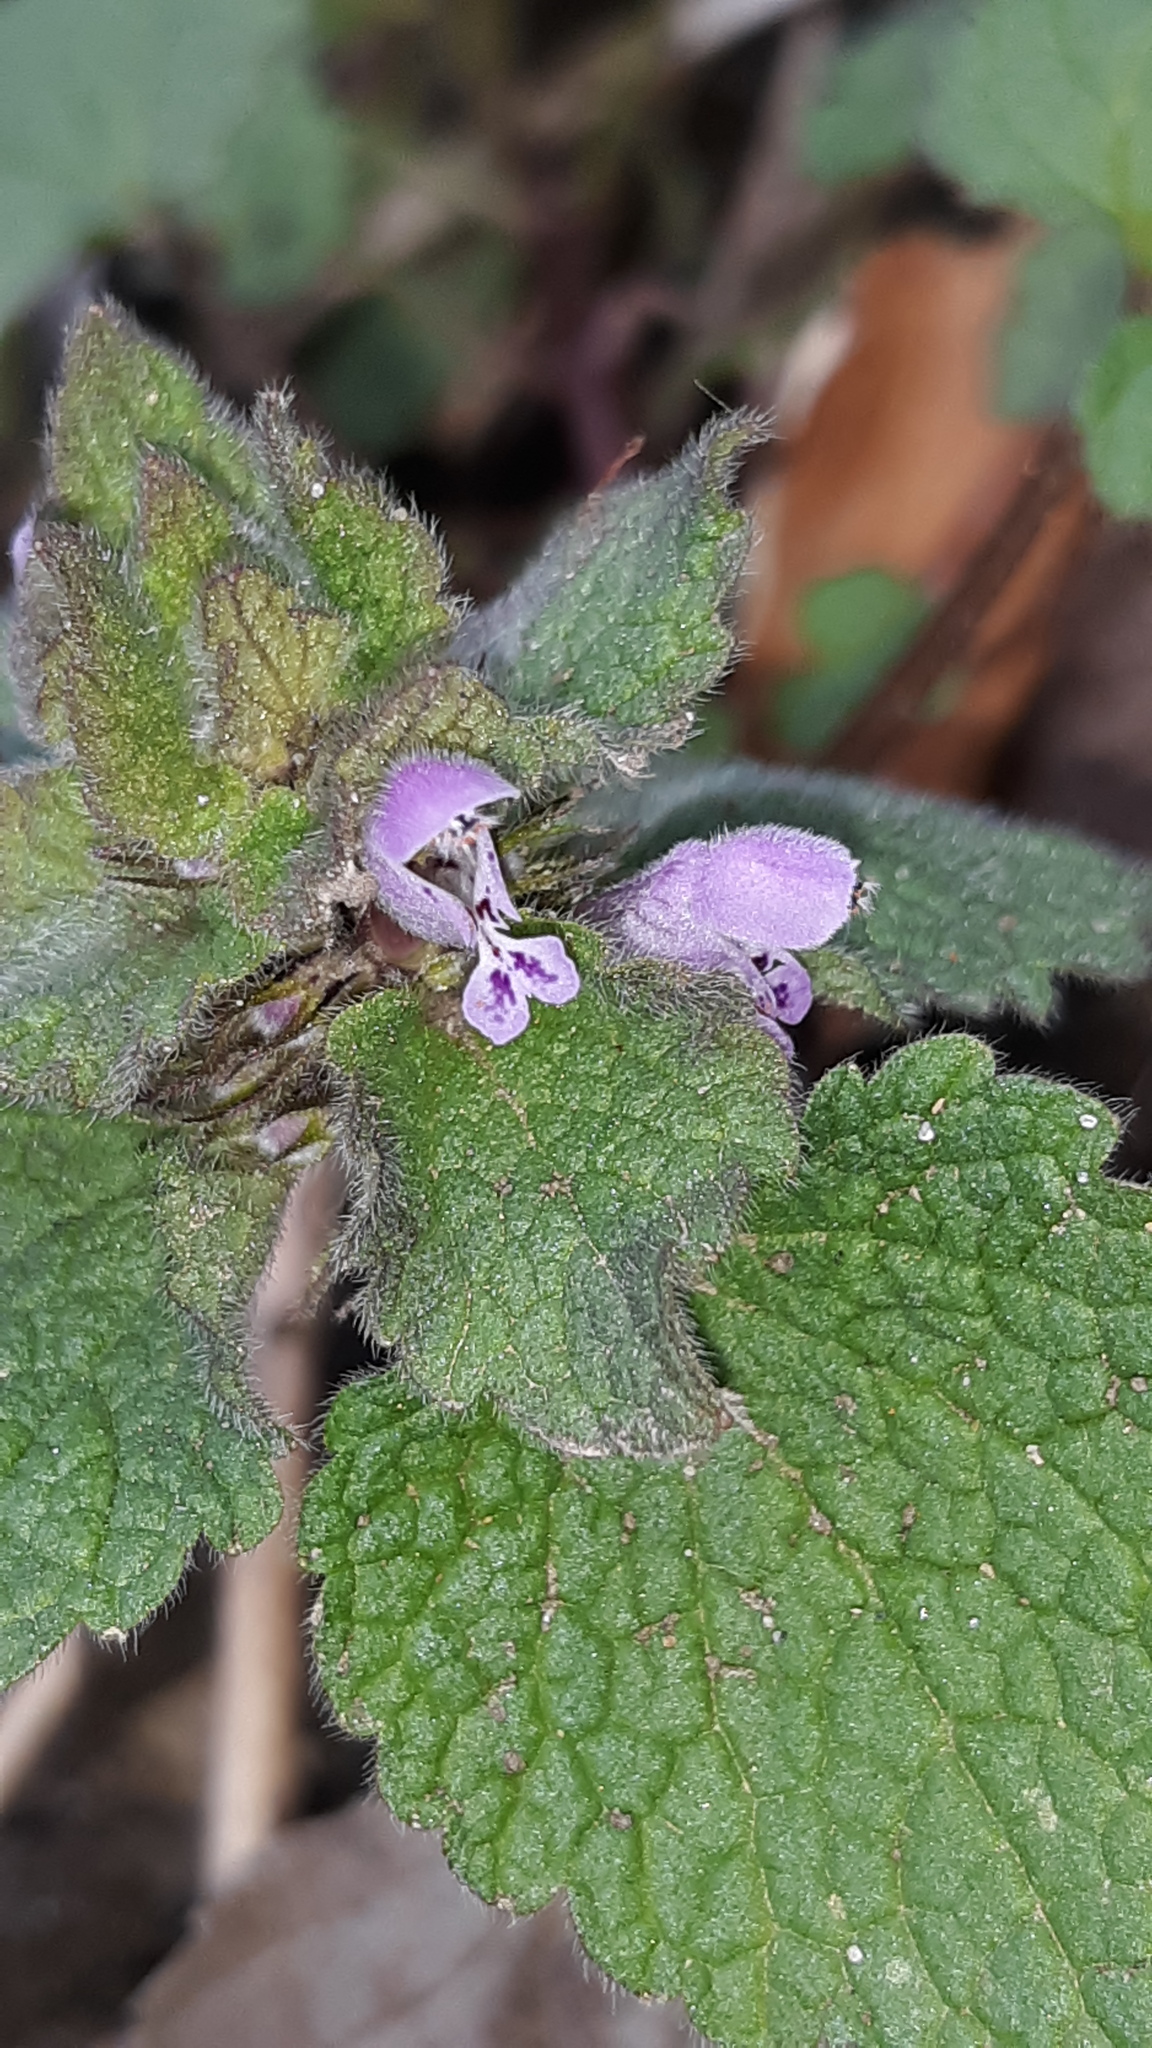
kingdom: Plantae
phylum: Tracheophyta
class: Magnoliopsida
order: Lamiales
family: Lamiaceae
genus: Lamium
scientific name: Lamium purpureum
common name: Red dead-nettle
